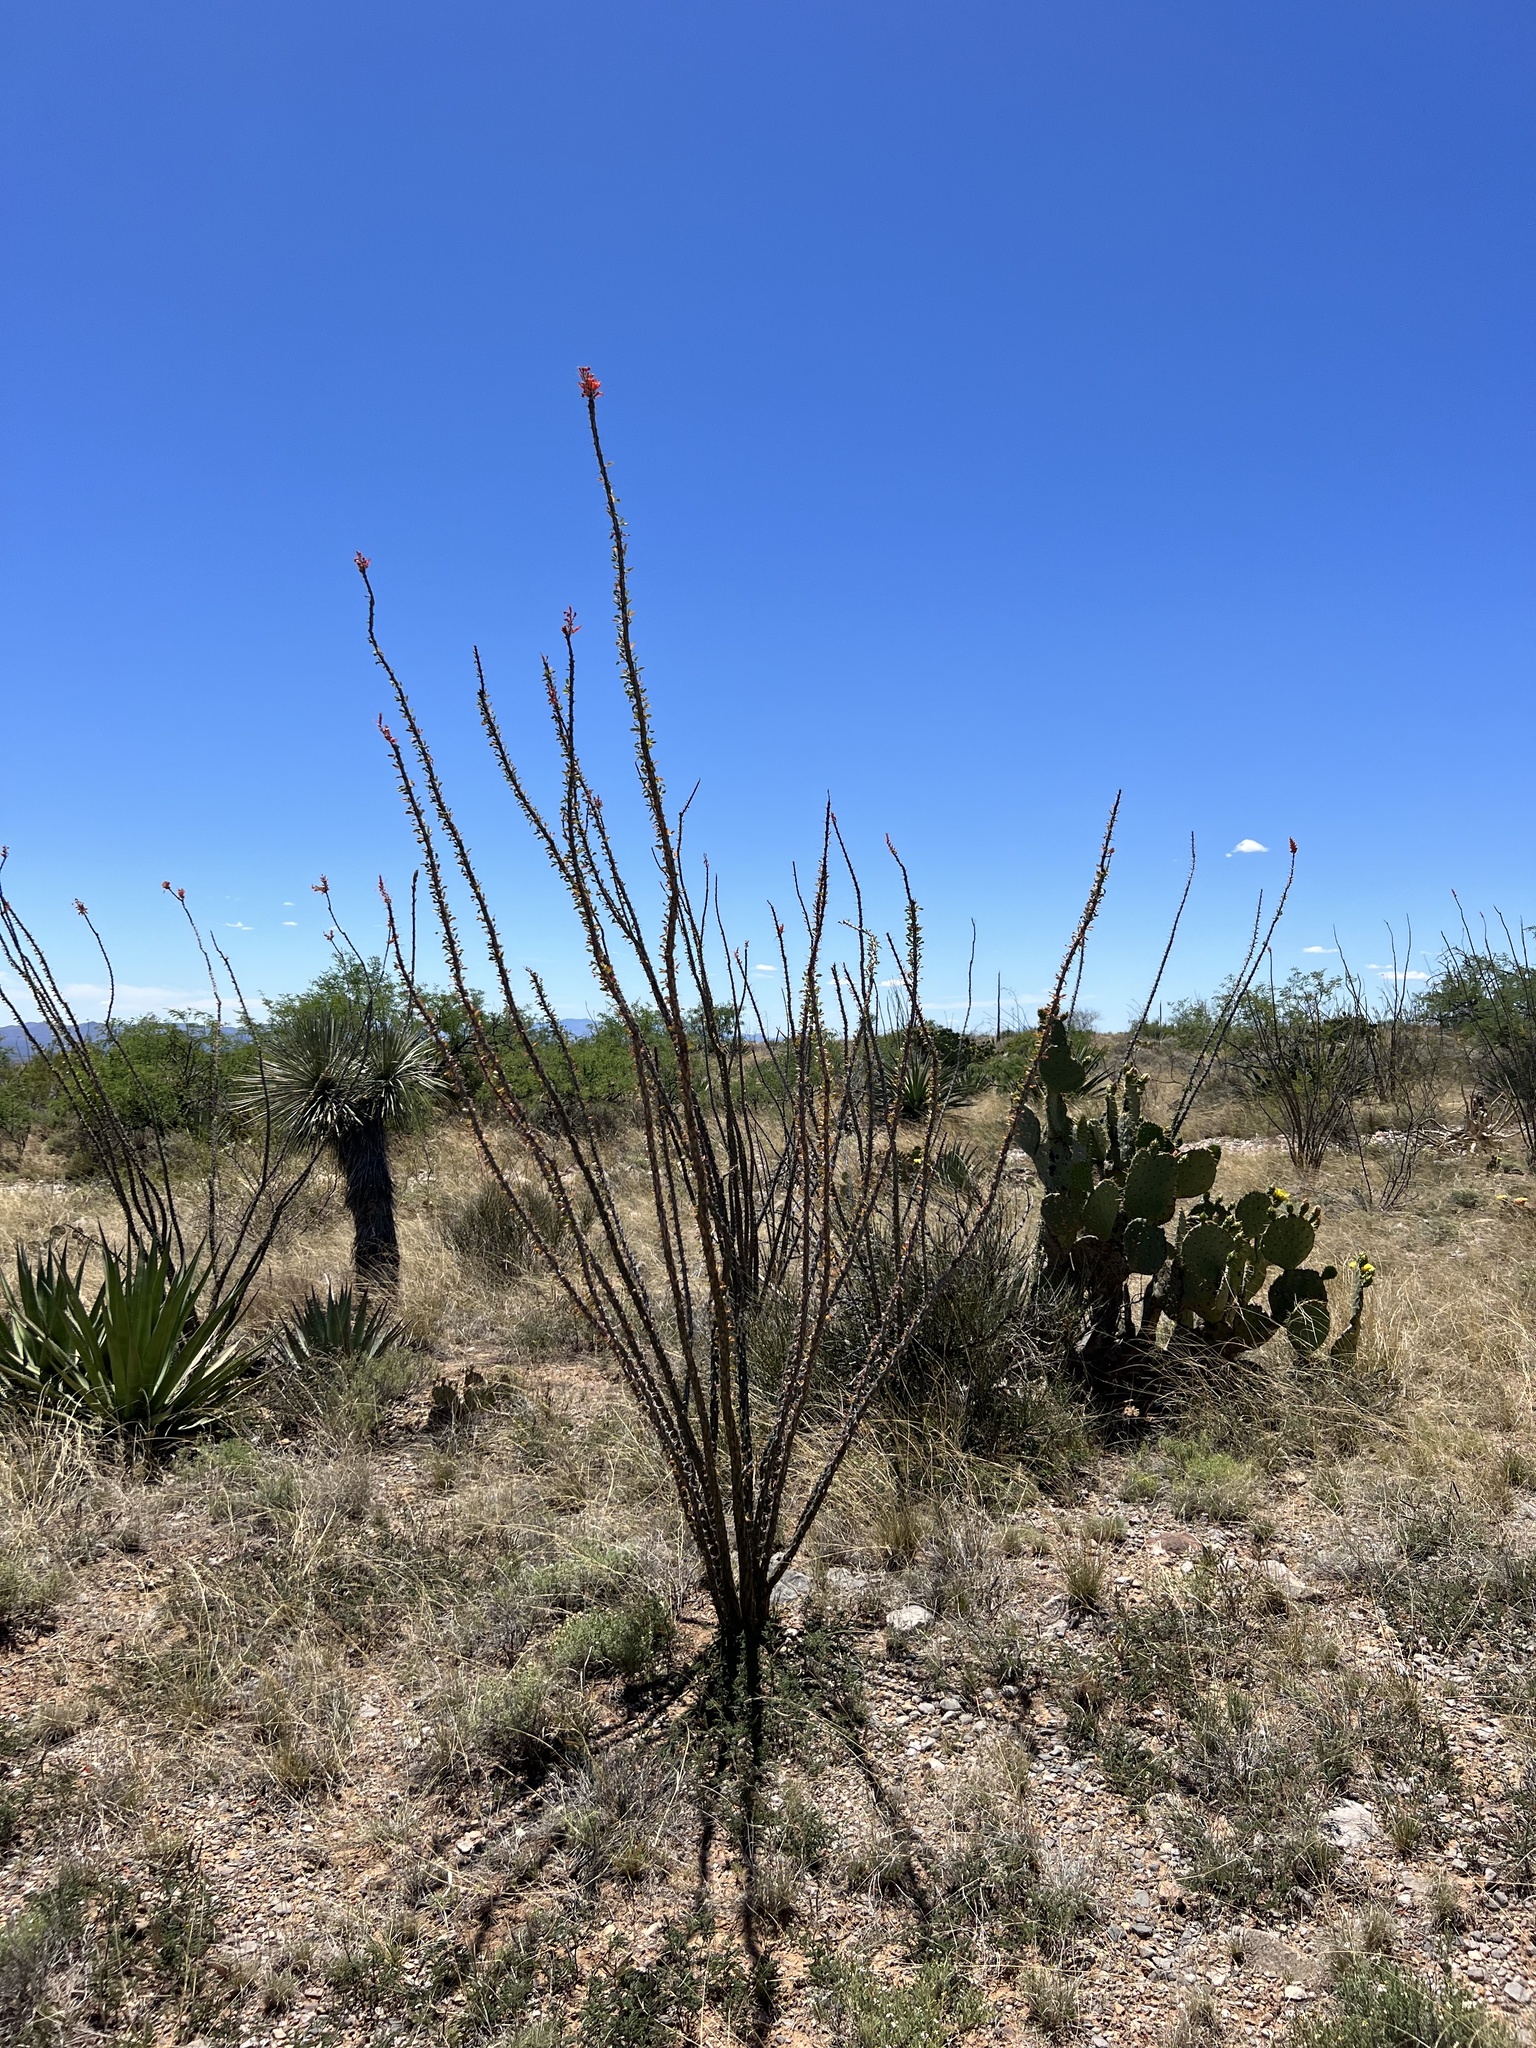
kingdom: Plantae
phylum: Tracheophyta
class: Magnoliopsida
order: Ericales
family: Fouquieriaceae
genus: Fouquieria
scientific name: Fouquieria splendens
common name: Vine-cactus
